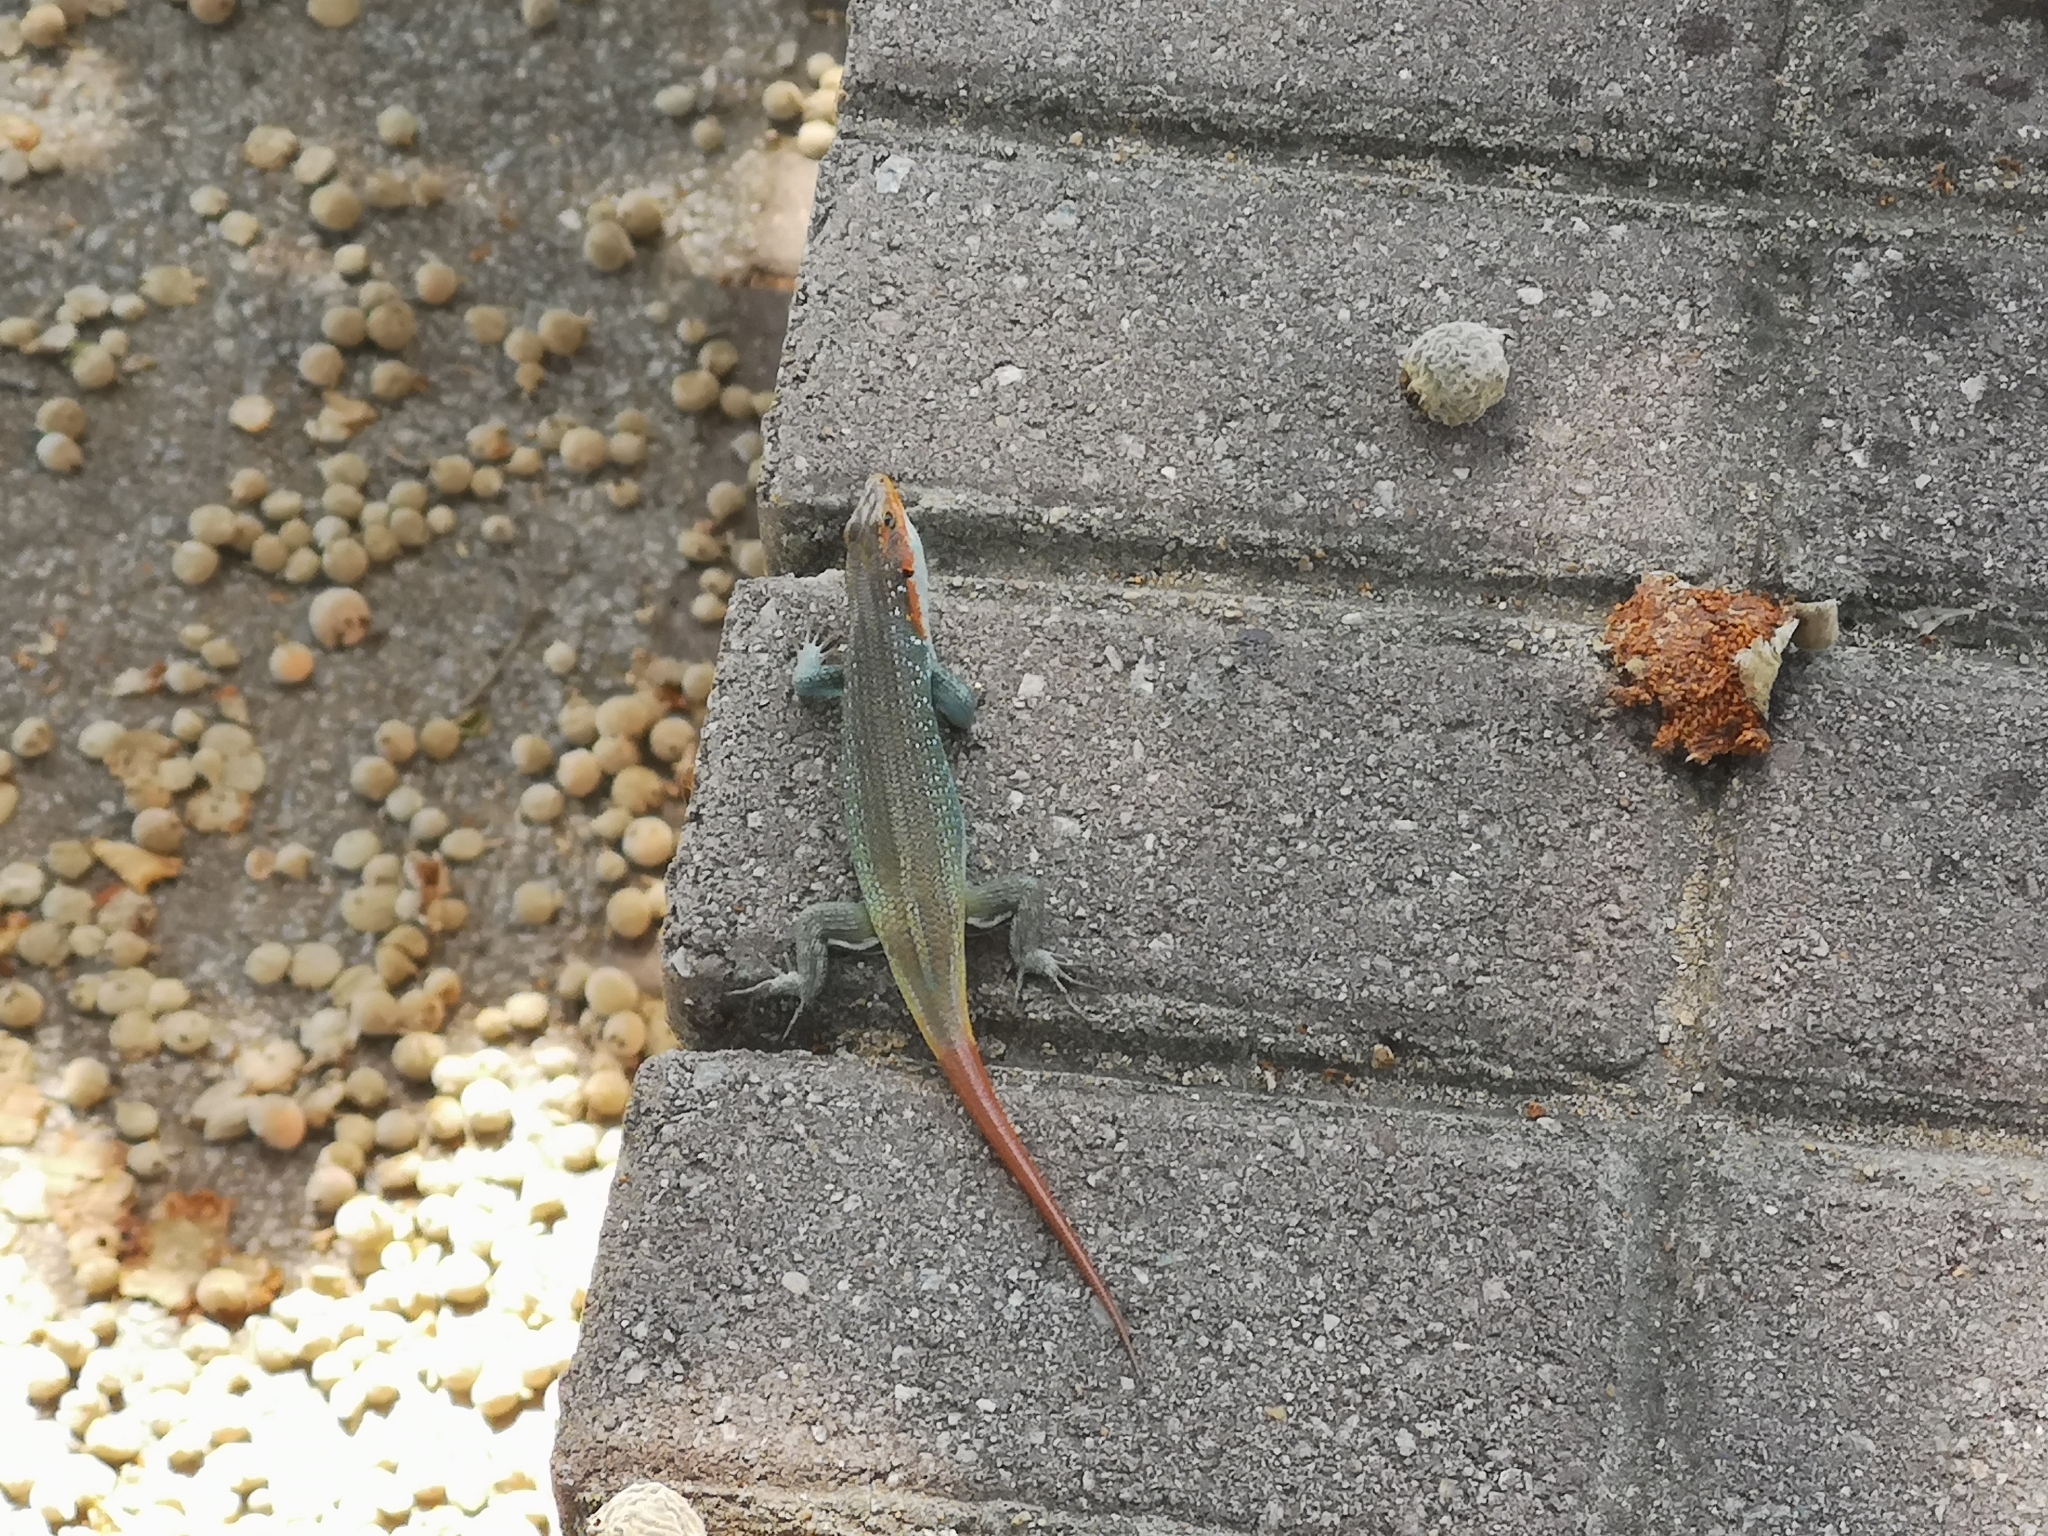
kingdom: Animalia
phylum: Chordata
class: Squamata
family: Scincidae
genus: Trachylepis
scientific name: Trachylepis margaritifera
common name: Rainbow skink
